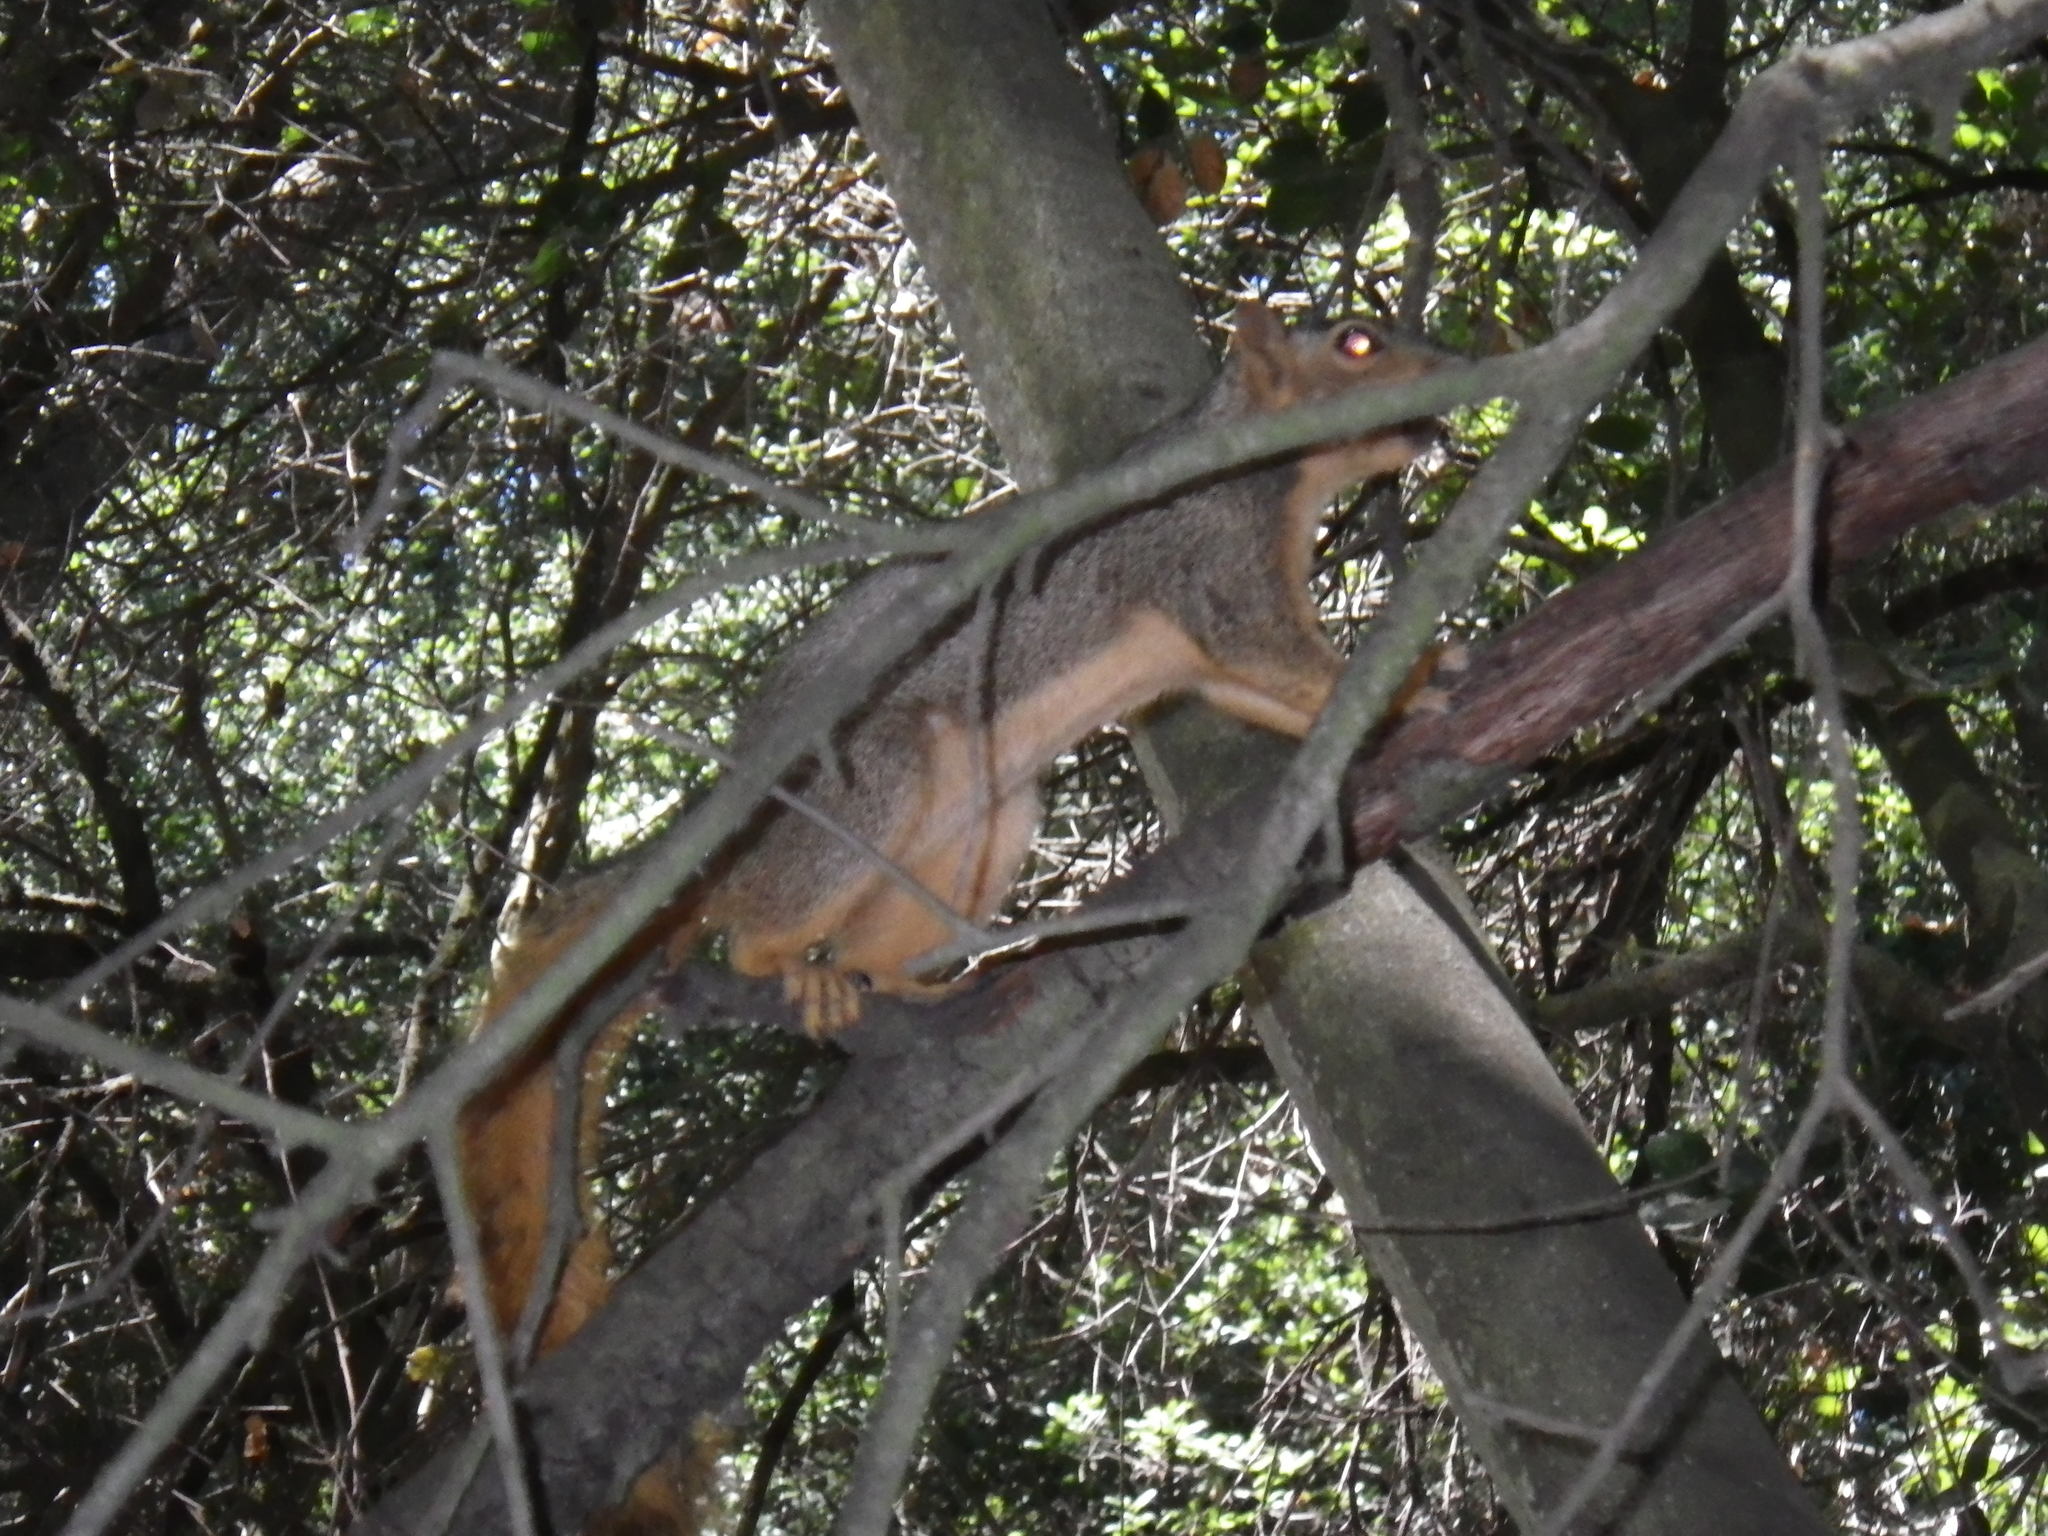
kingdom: Animalia
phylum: Chordata
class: Mammalia
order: Rodentia
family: Sciuridae
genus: Sciurus
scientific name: Sciurus niger
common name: Fox squirrel
